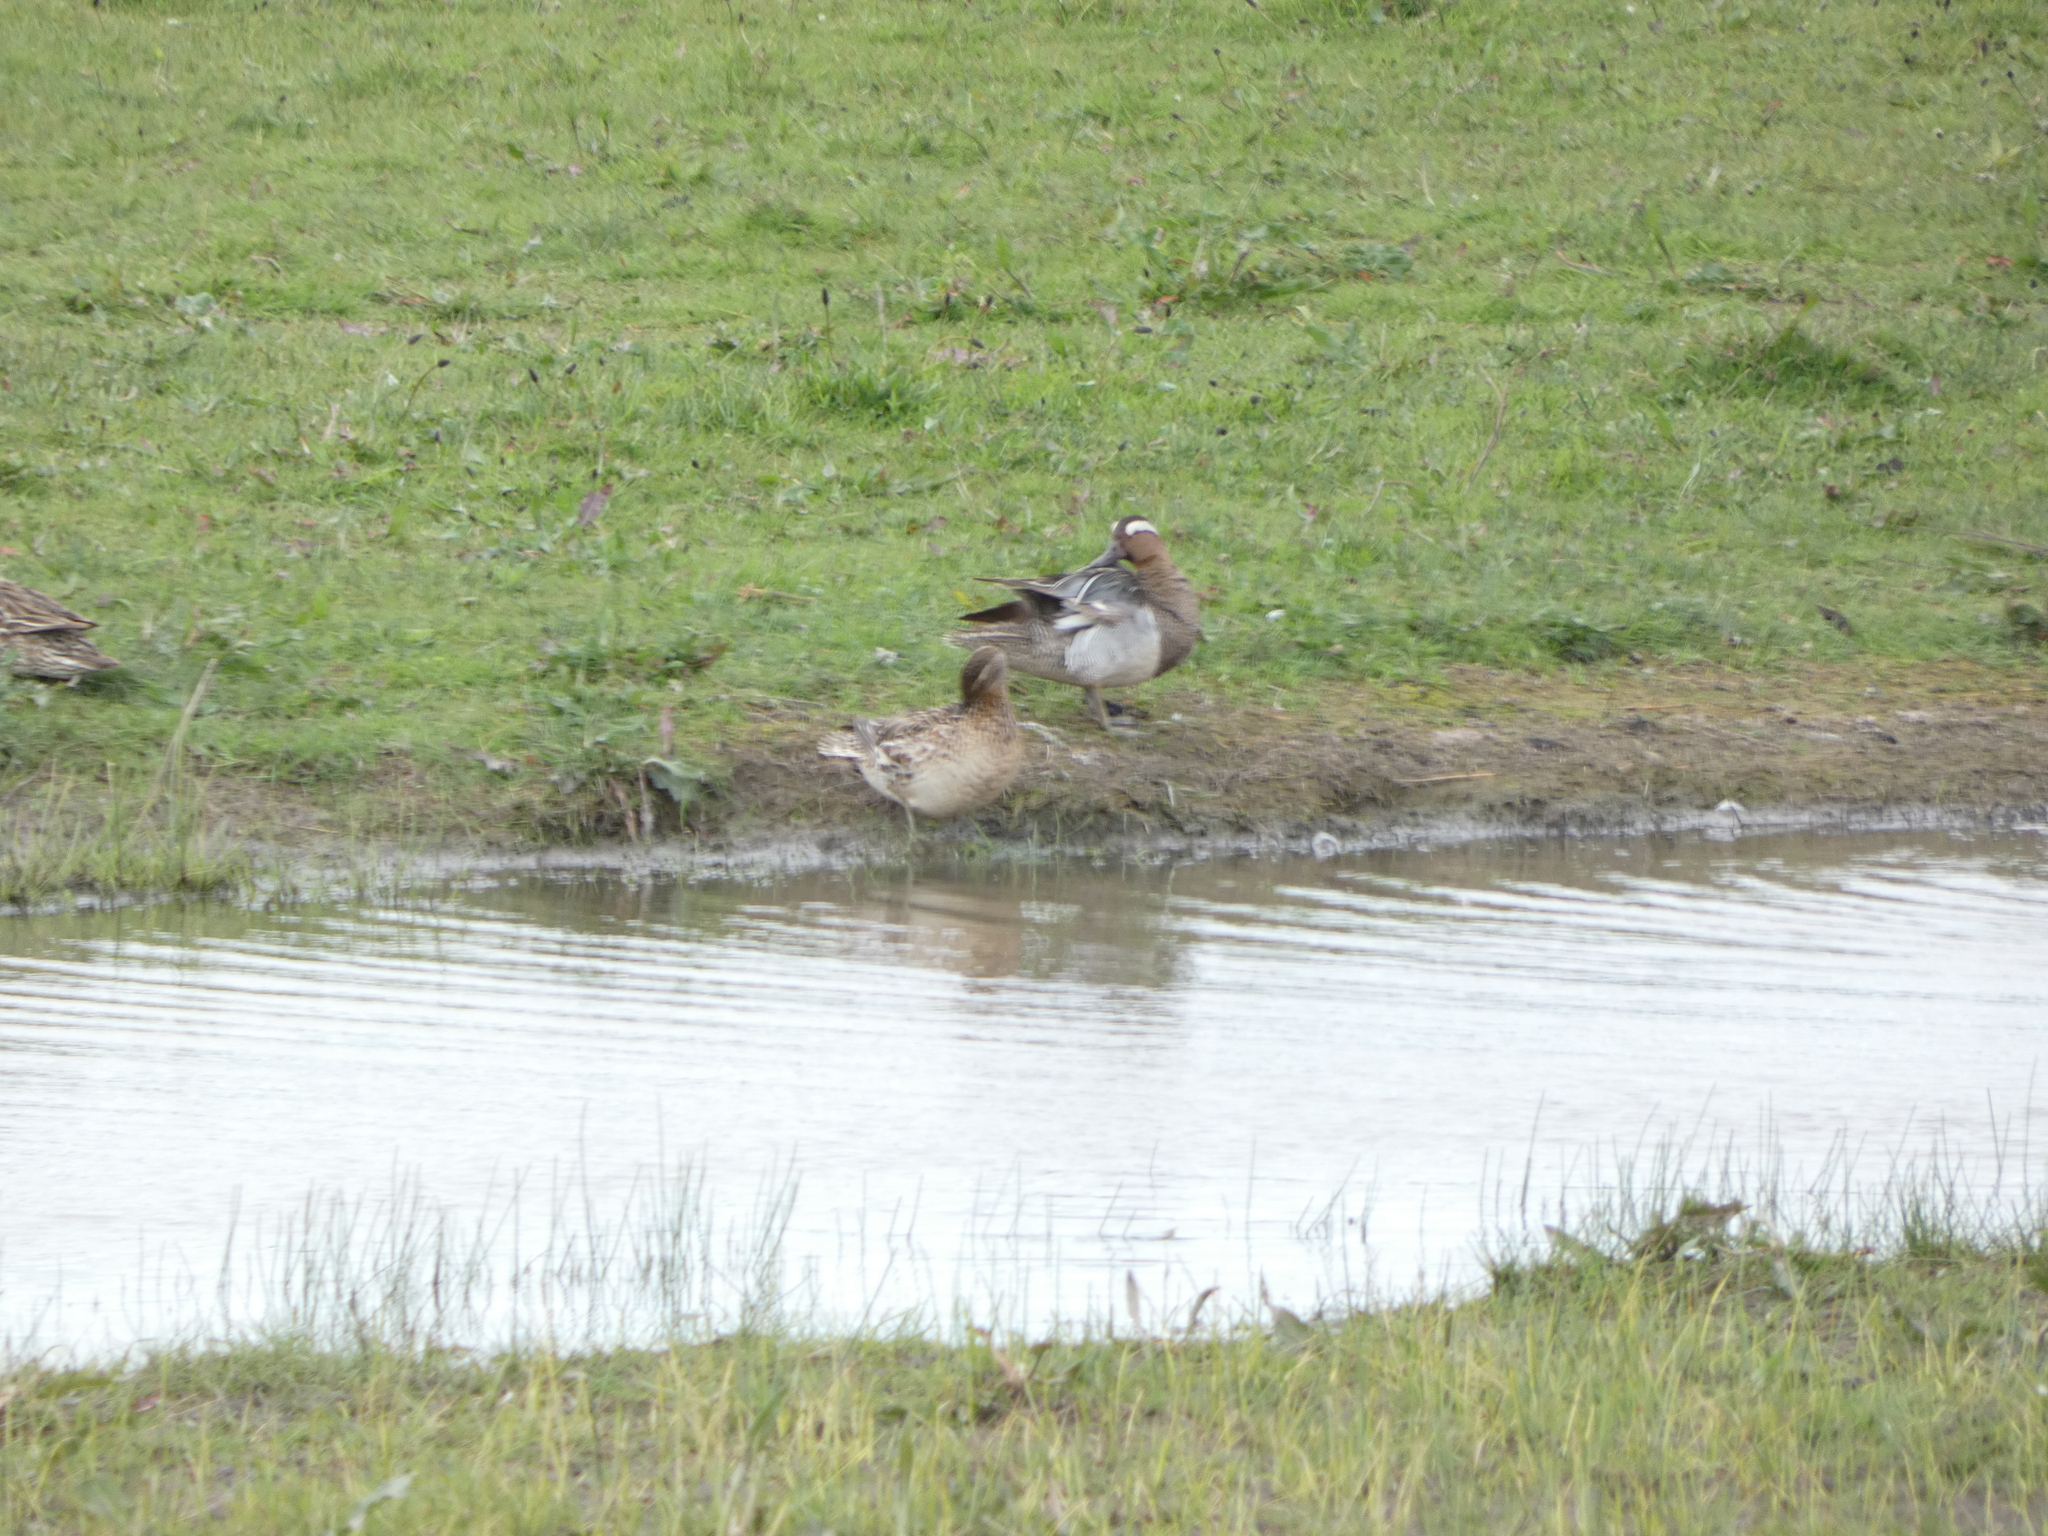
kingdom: Animalia
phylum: Chordata
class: Aves
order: Anseriformes
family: Anatidae
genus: Spatula
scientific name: Spatula querquedula
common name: Garganey
